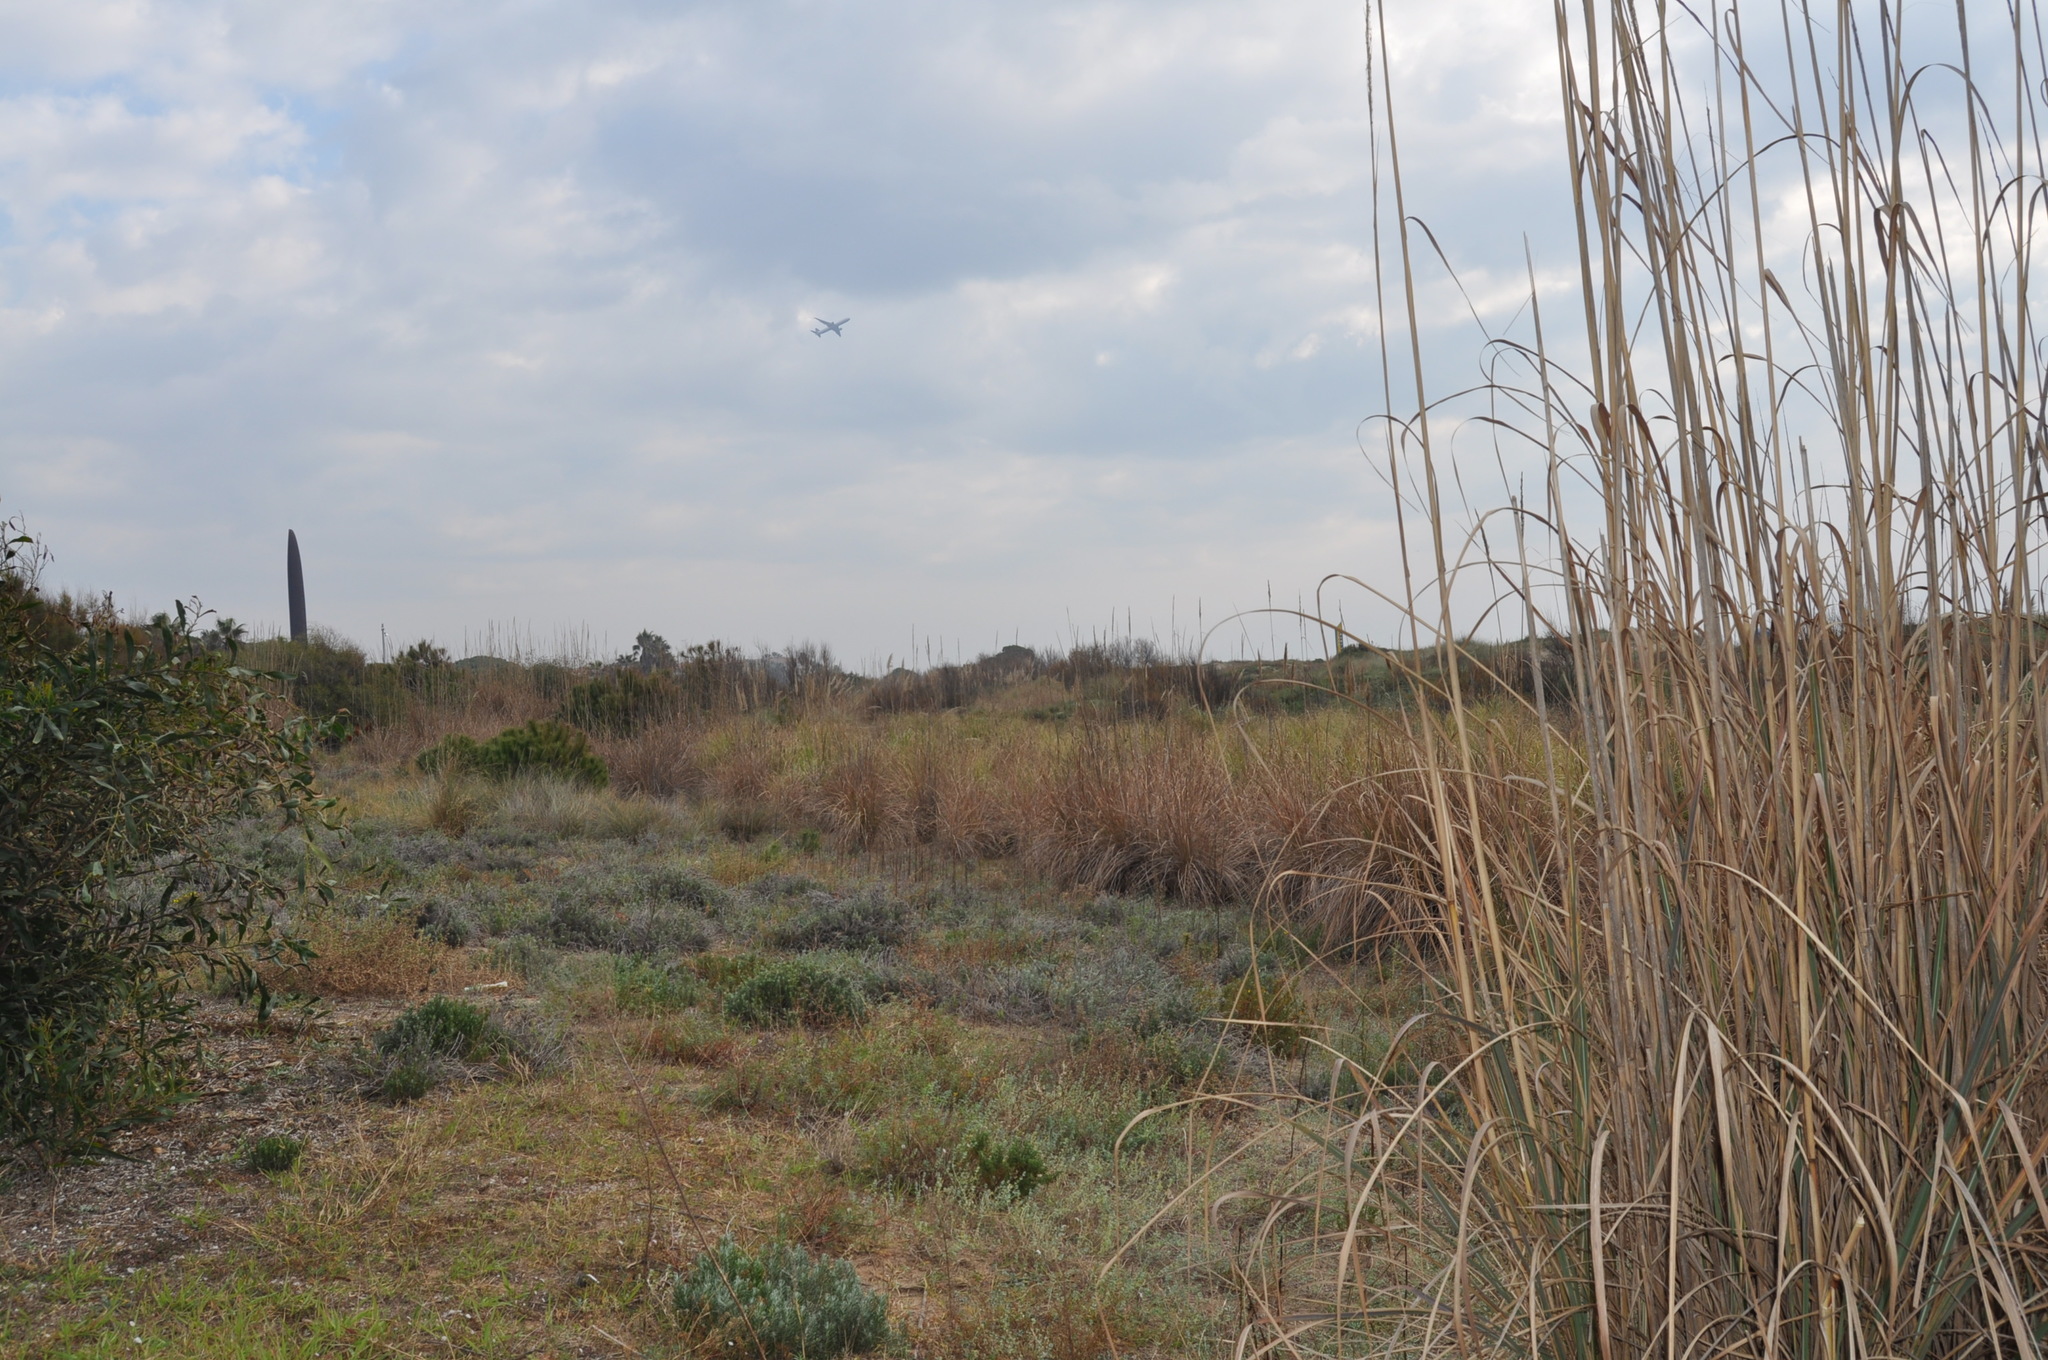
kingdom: Plantae
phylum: Tracheophyta
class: Liliopsida
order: Poales
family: Poaceae
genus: Cortaderia
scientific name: Cortaderia selloana
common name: Uruguayan pampas grass
